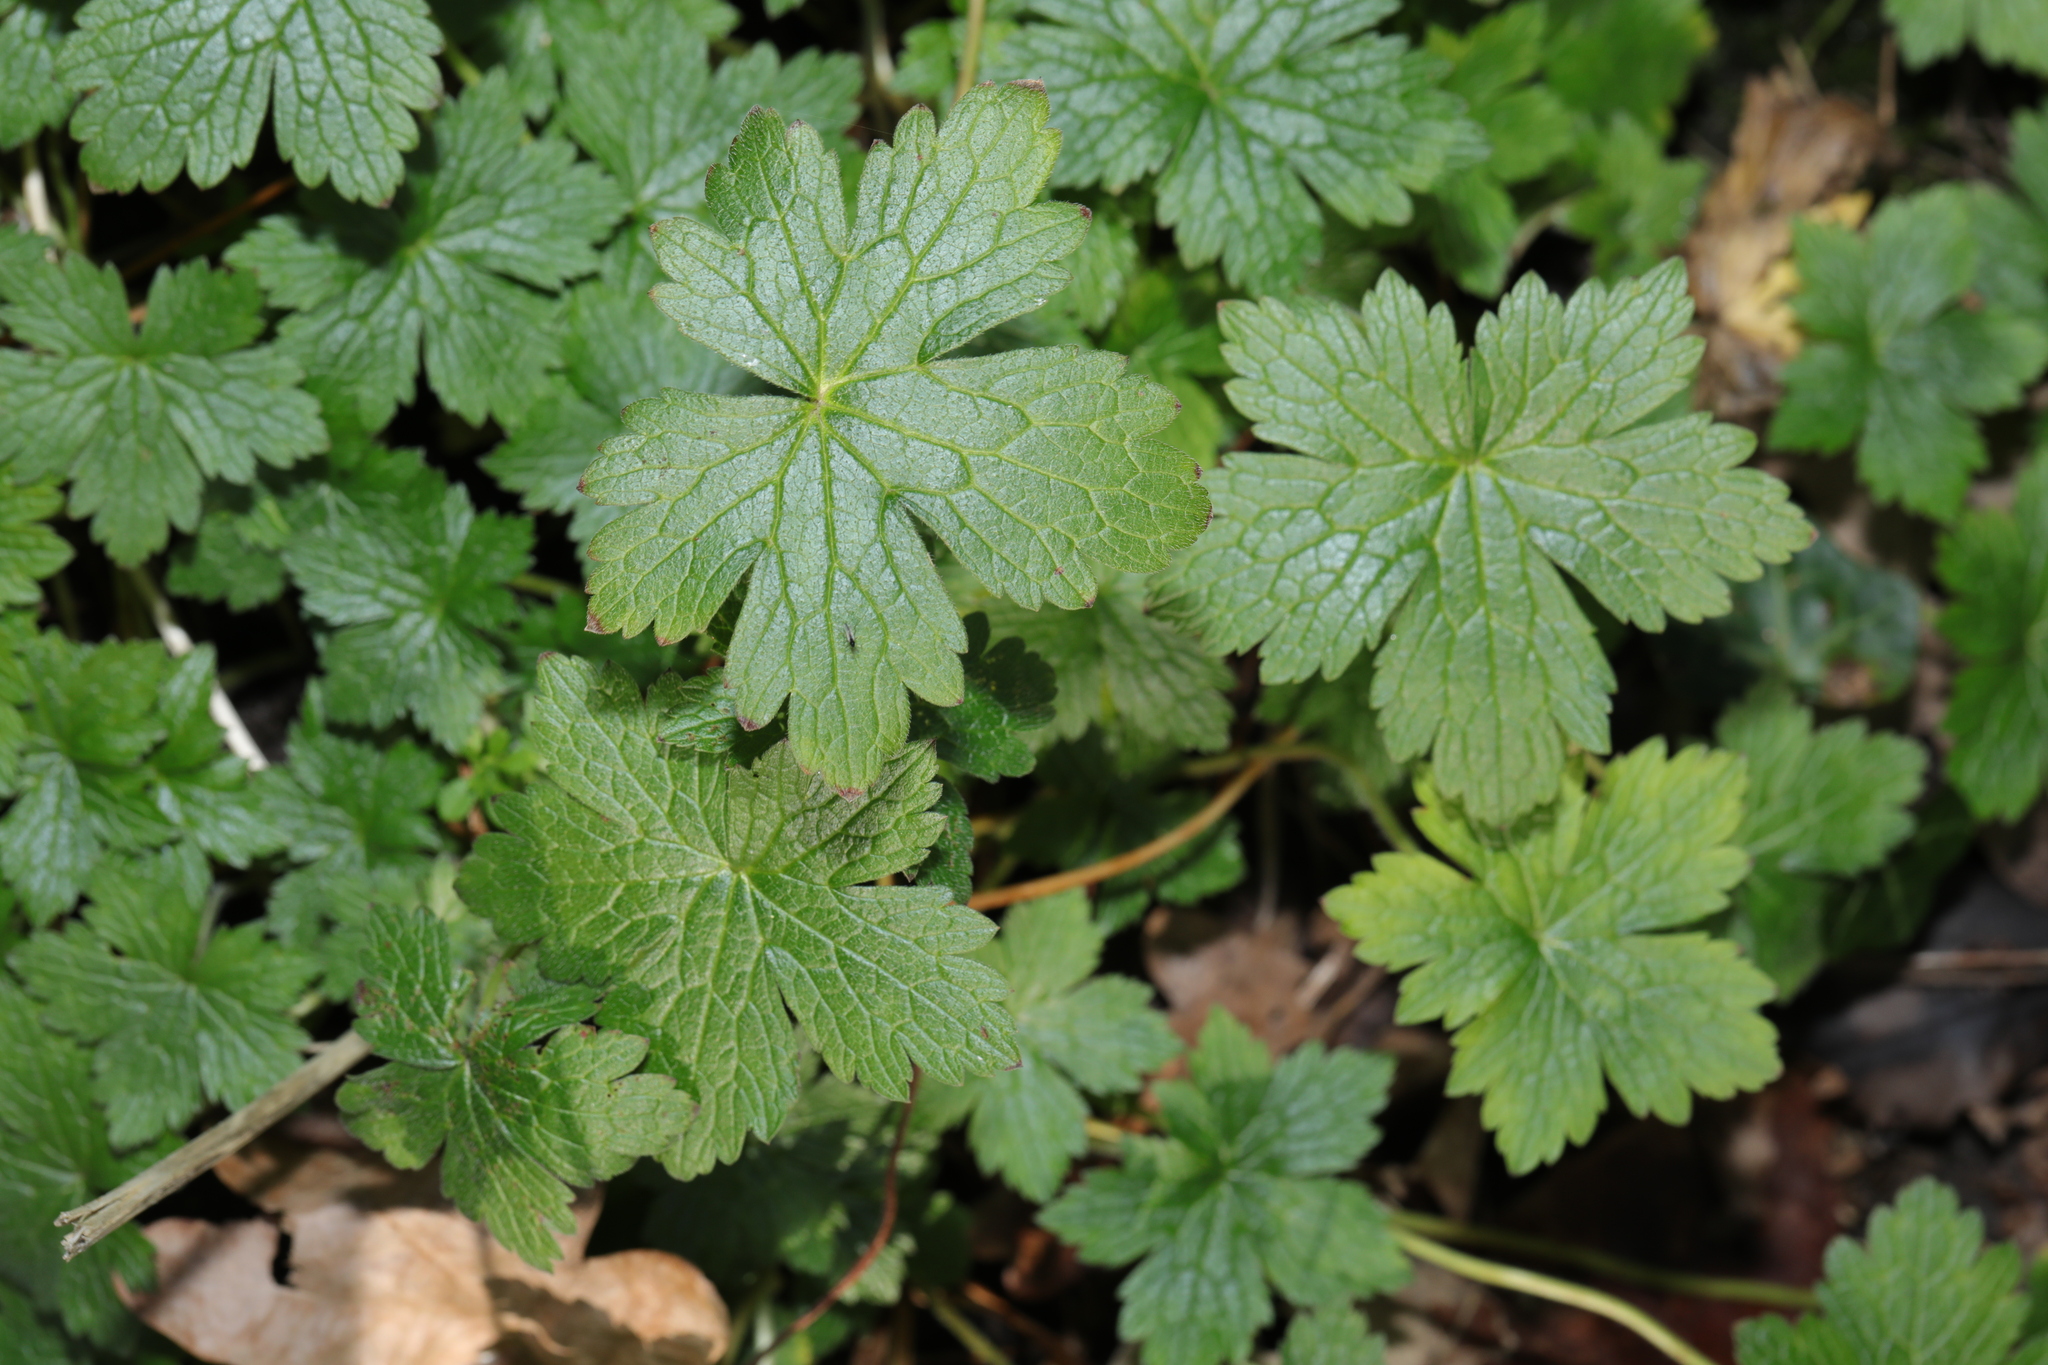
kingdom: Plantae
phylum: Tracheophyta
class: Magnoliopsida
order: Geraniales
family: Geraniaceae
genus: Geranium
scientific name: Geranium oxonianum
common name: Druce's crane's-bill
